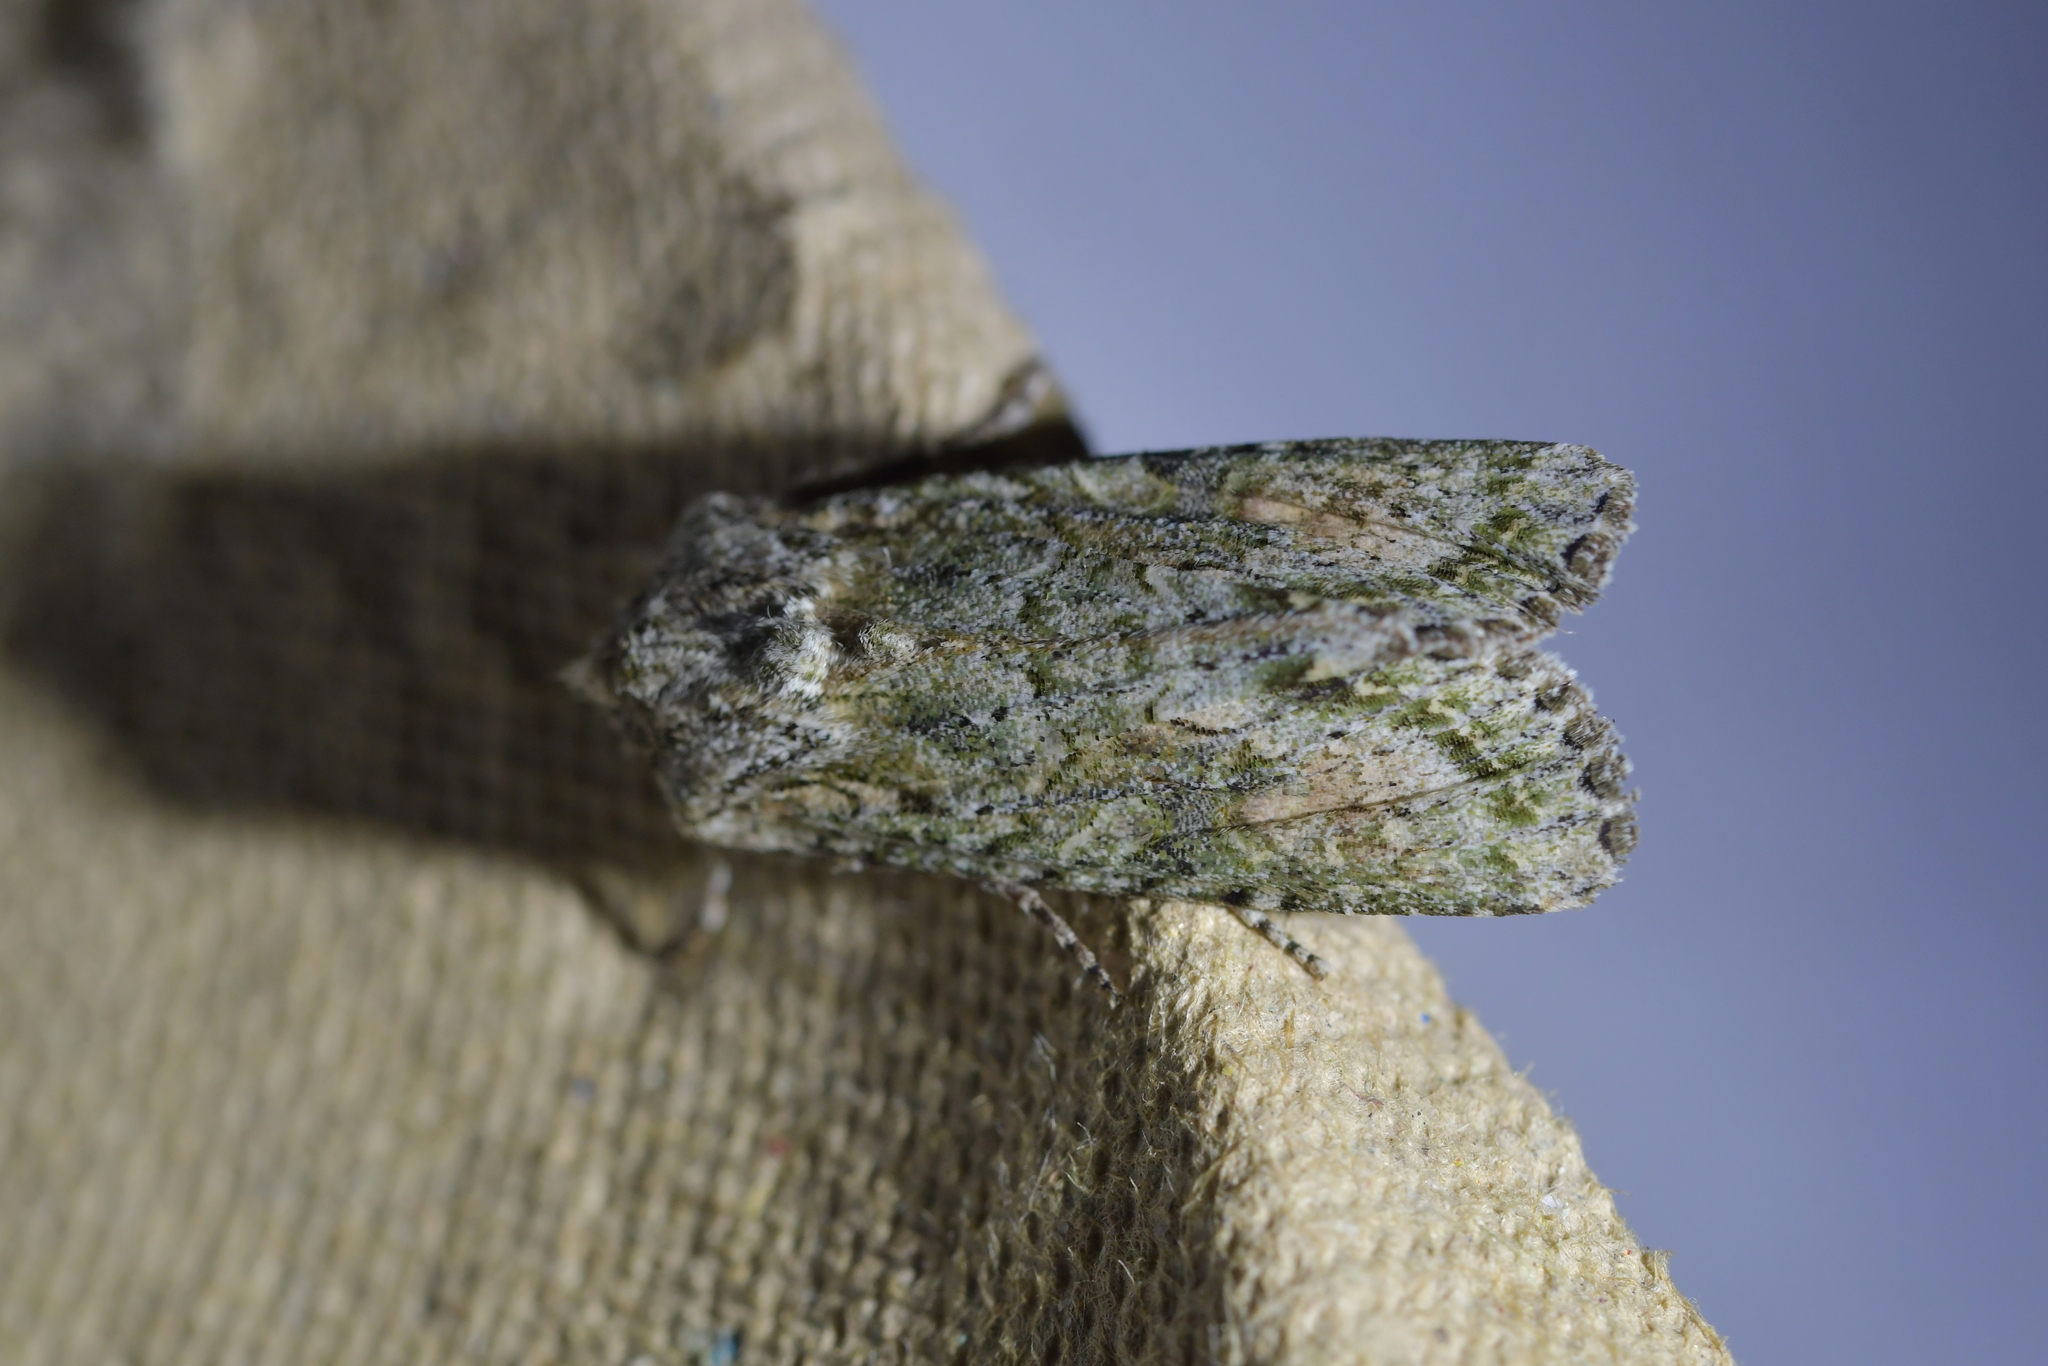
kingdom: Animalia
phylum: Arthropoda
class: Insecta
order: Lepidoptera
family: Noctuidae
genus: Ichneutica
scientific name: Ichneutica mutans
